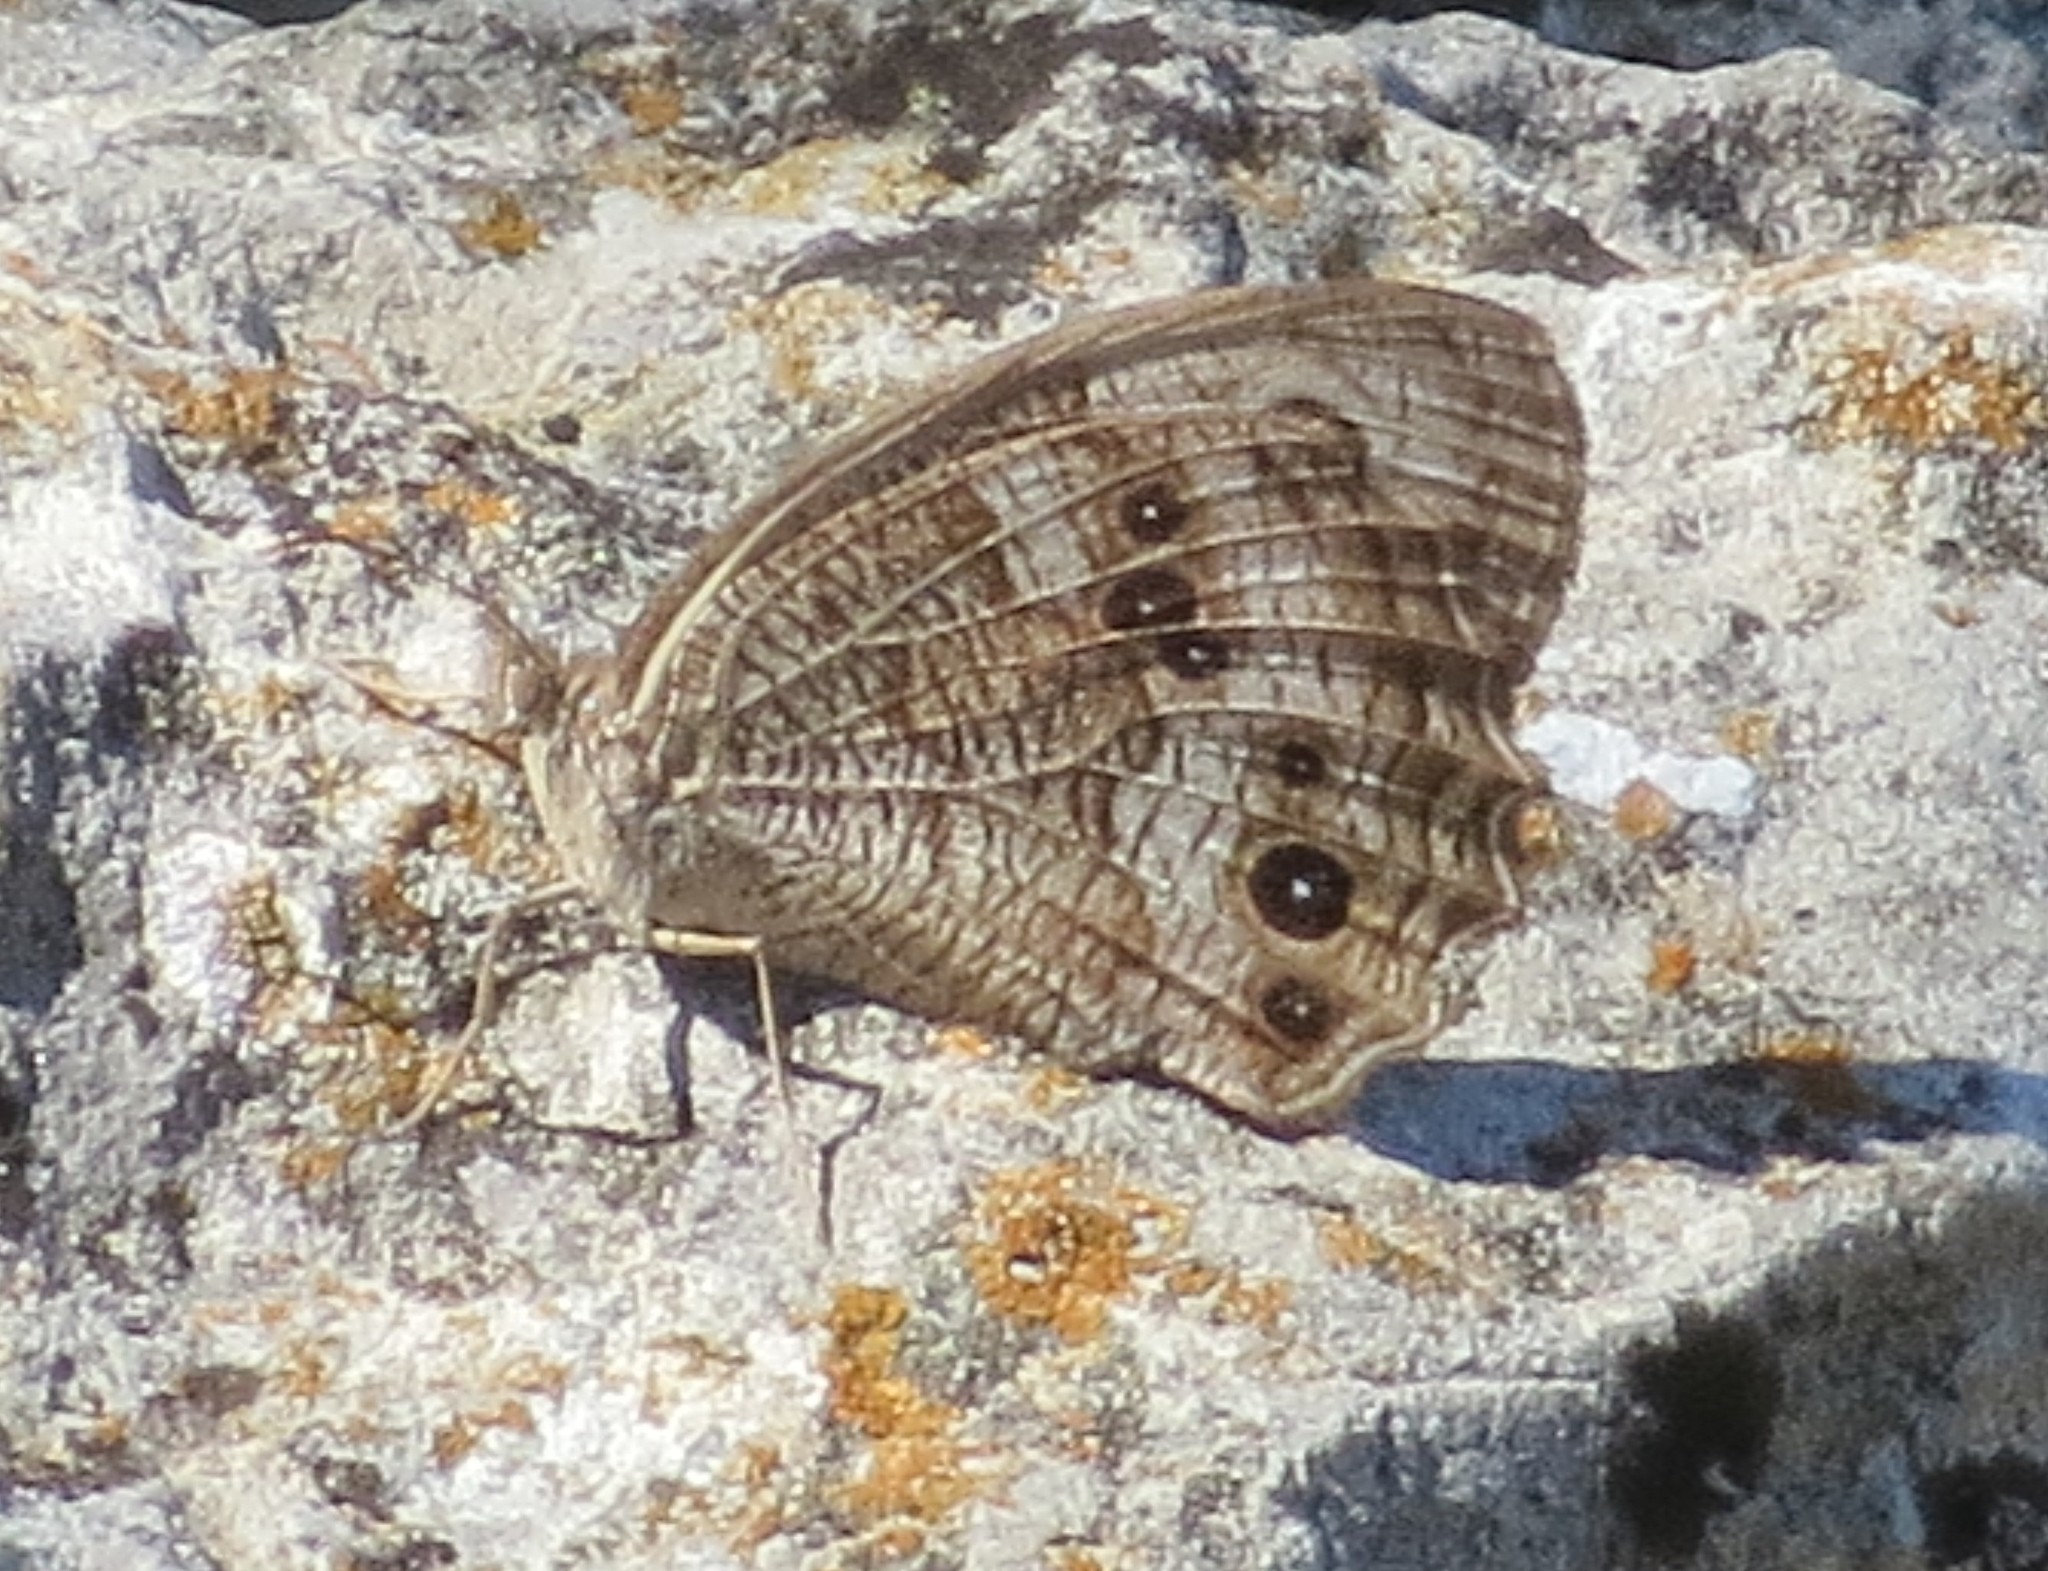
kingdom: Animalia
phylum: Arthropoda
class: Insecta
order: Lepidoptera
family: Nymphalidae
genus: Cercyonis
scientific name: Cercyonis pegala
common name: Common wood-nymph
